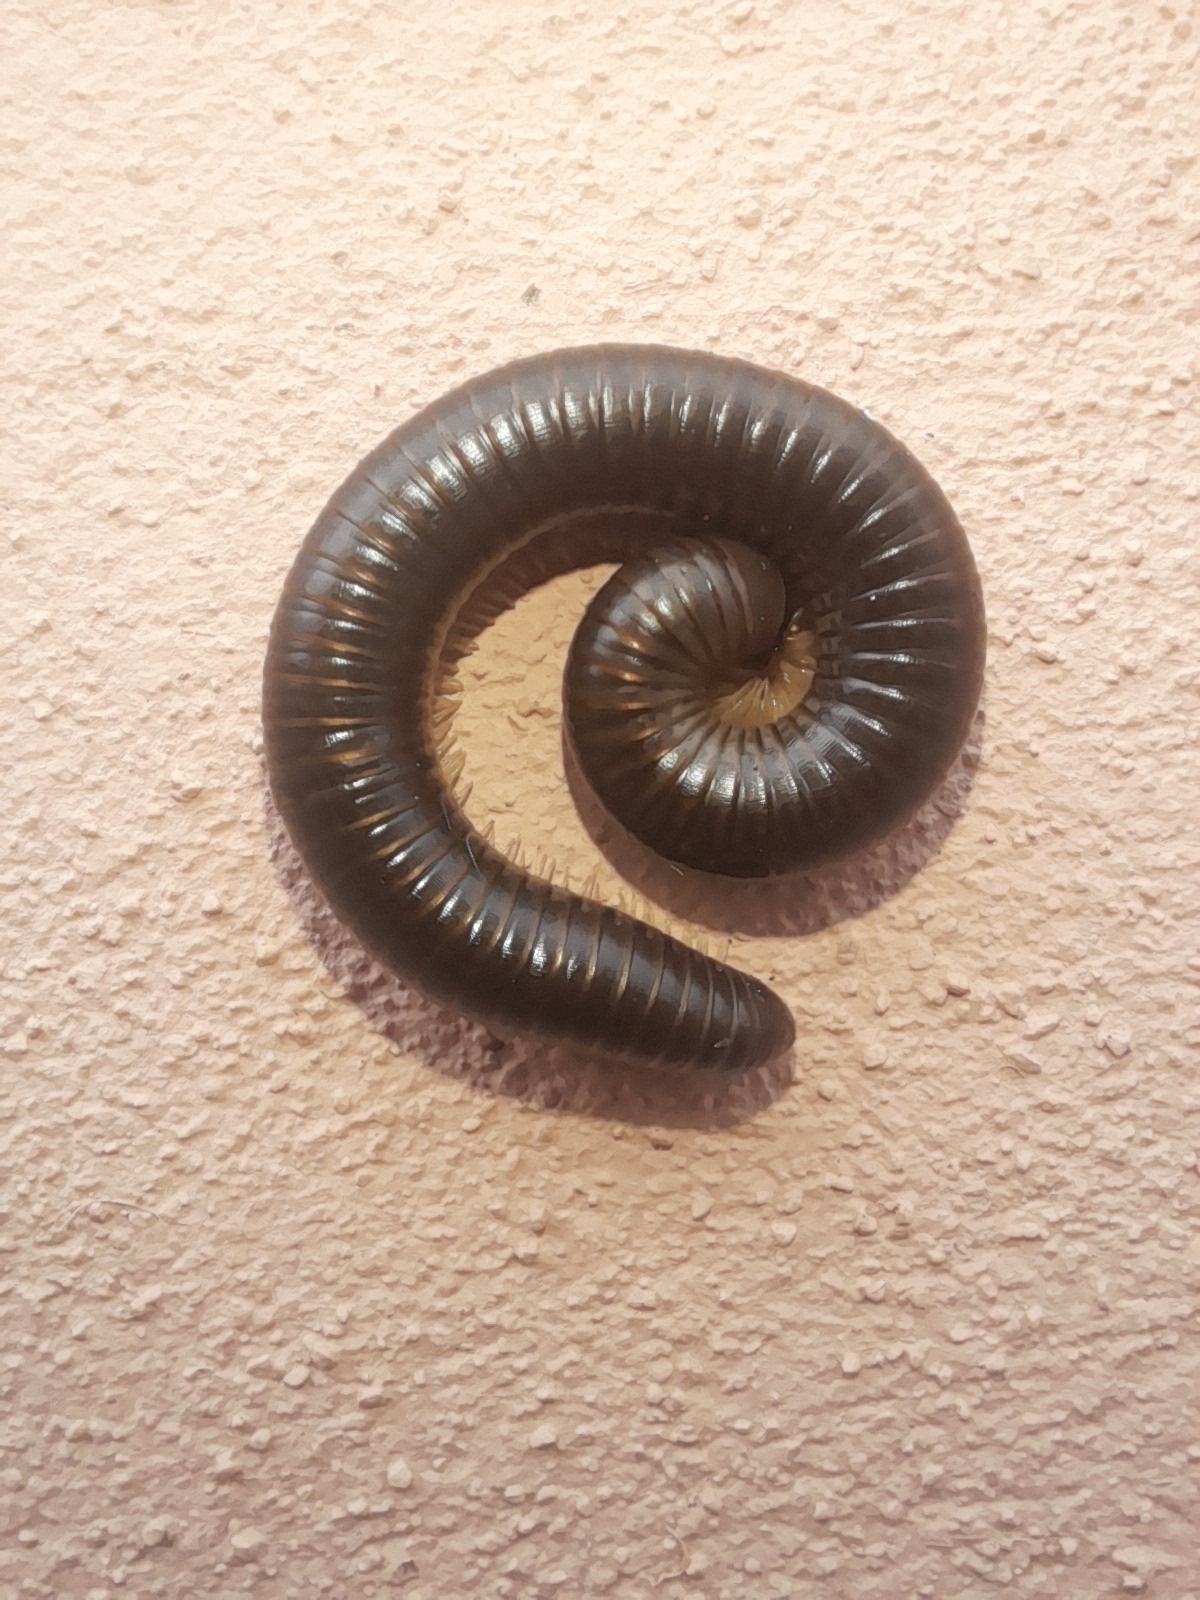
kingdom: Animalia
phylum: Arthropoda
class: Diplopoda
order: Julida
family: Julidae
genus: Pachyiulus
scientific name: Pachyiulus flavipes
